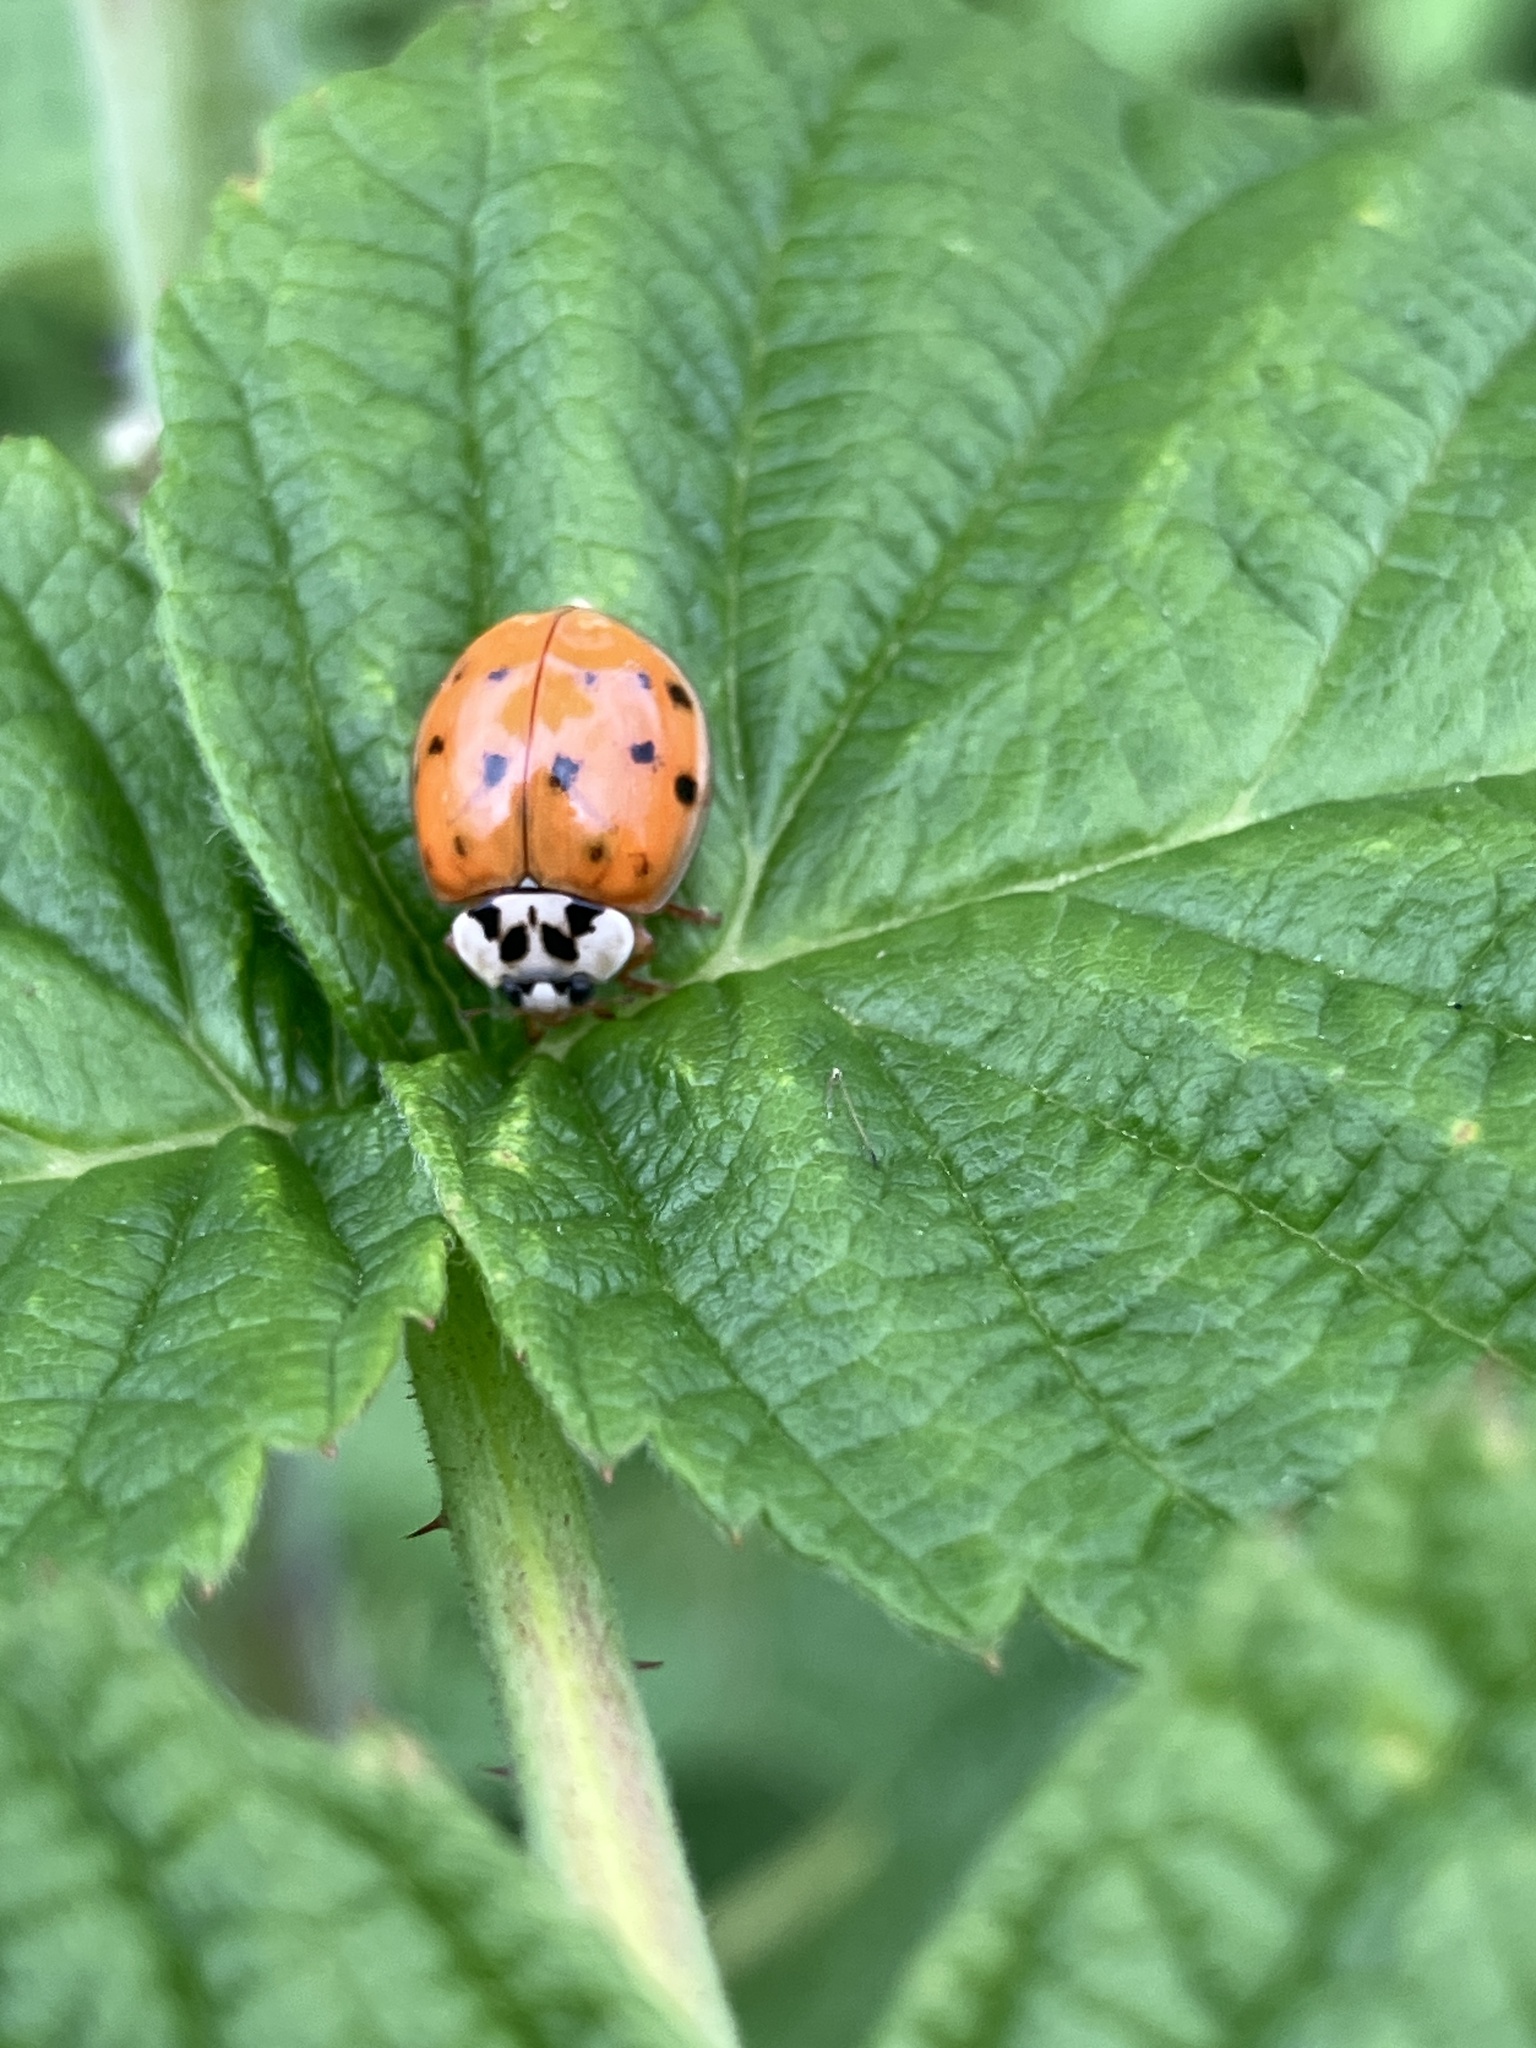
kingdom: Animalia
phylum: Arthropoda
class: Insecta
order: Coleoptera
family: Coccinellidae
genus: Harmonia
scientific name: Harmonia axyridis
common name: Harlequin ladybird
